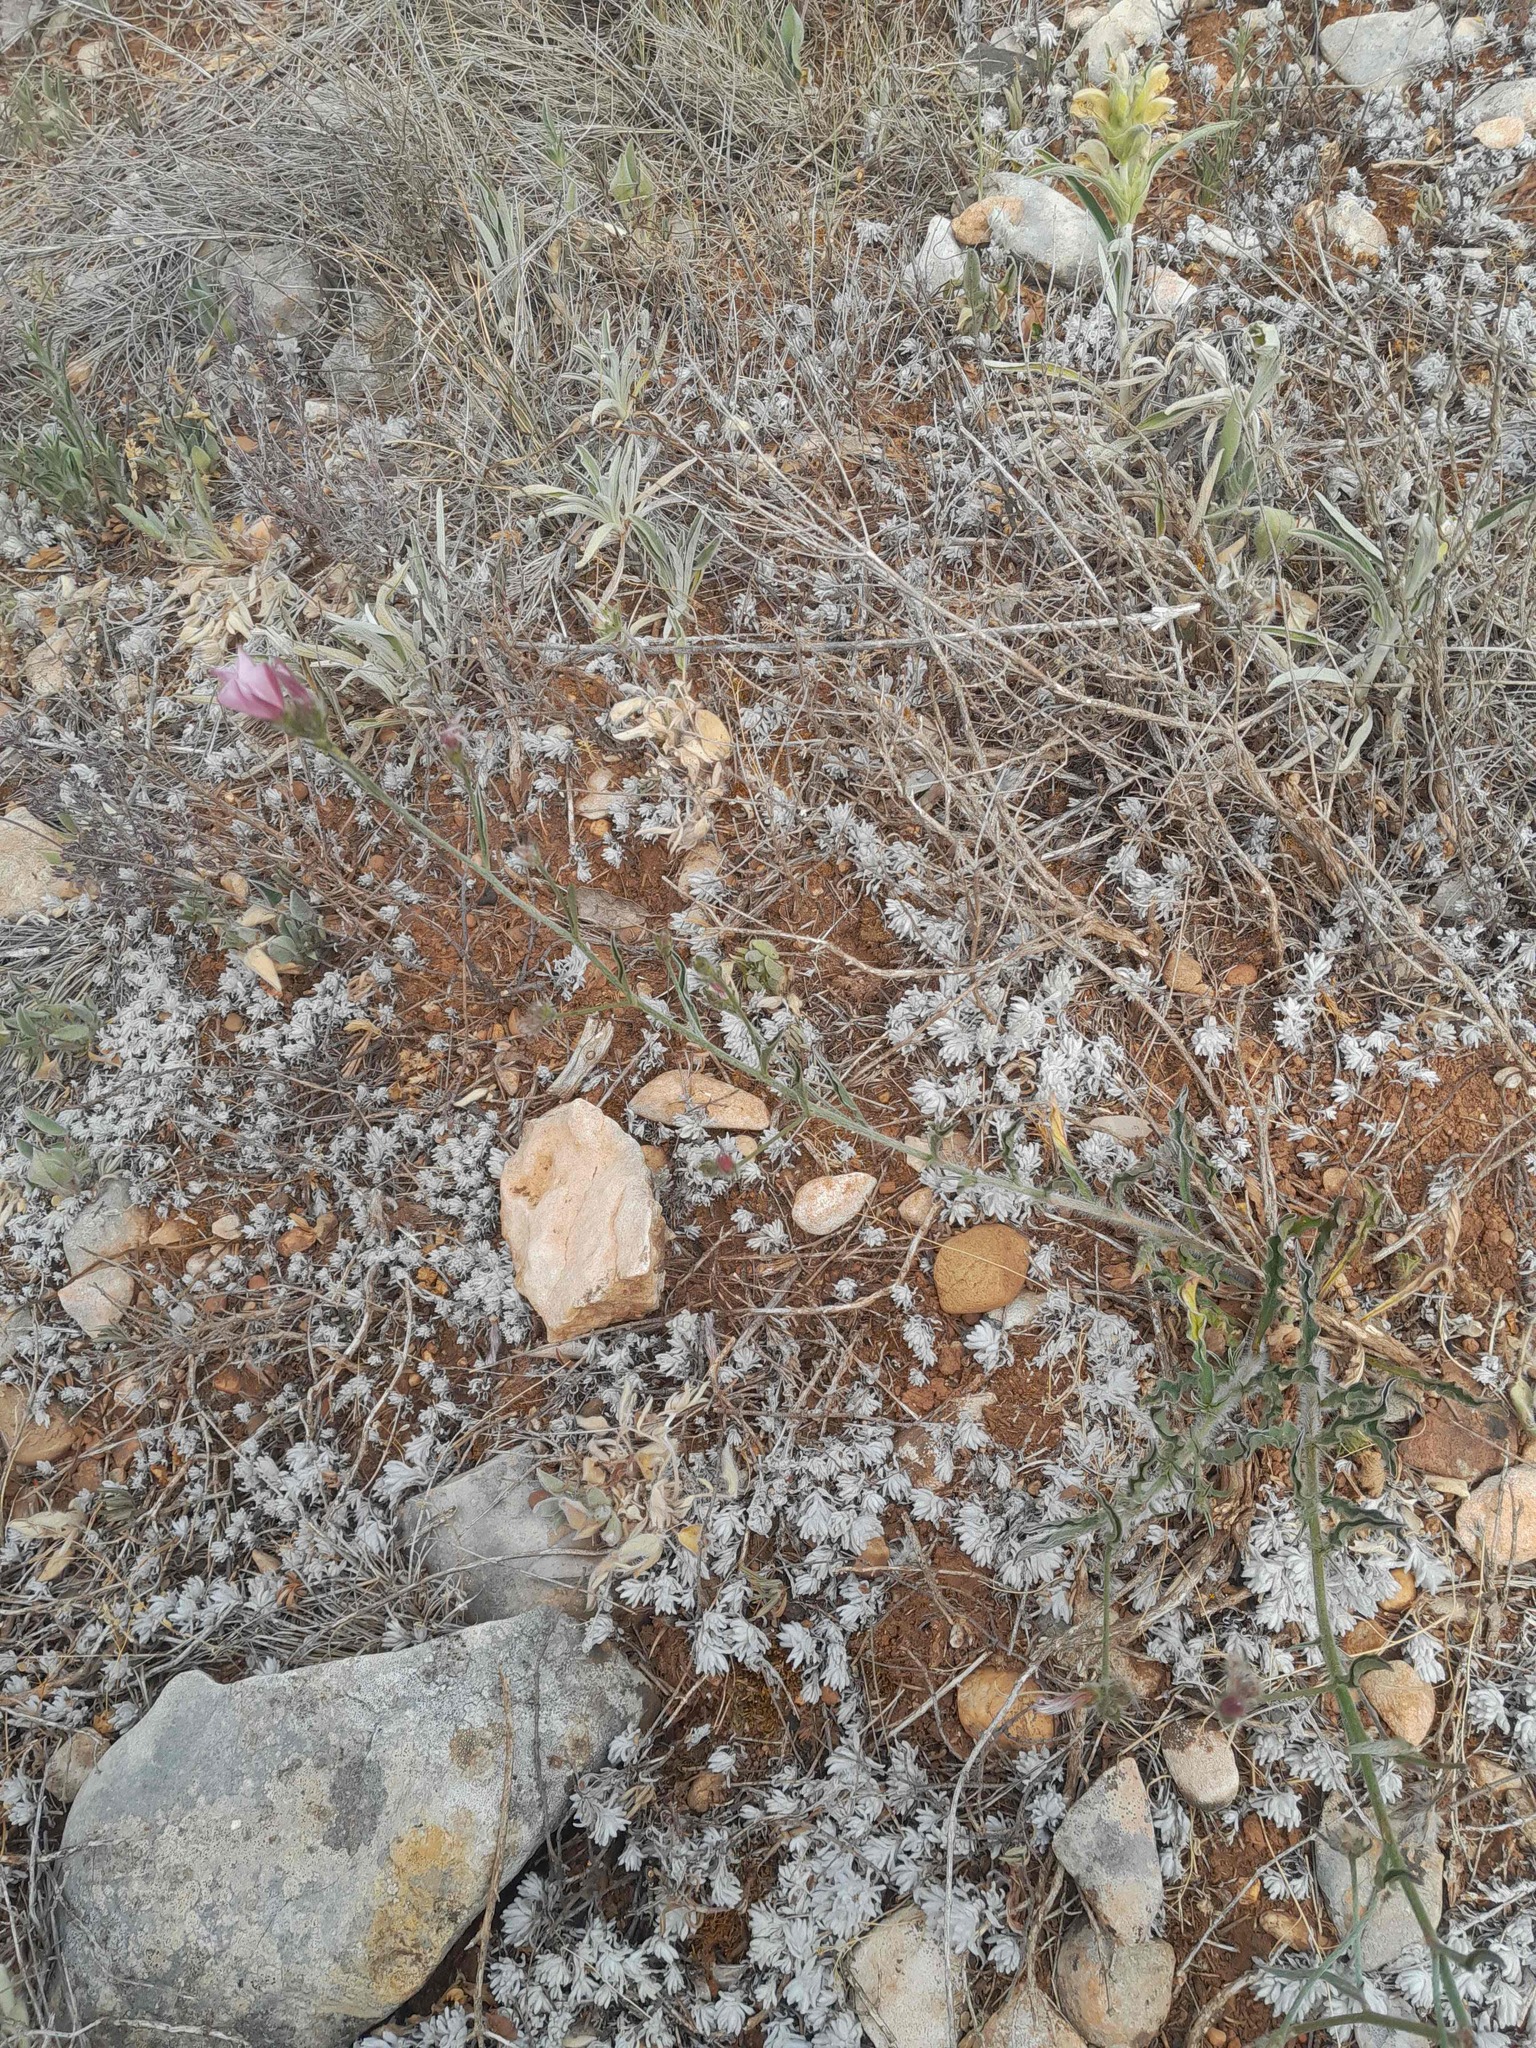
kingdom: Plantae
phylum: Tracheophyta
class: Magnoliopsida
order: Solanales
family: Convolvulaceae
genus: Convolvulus
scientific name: Convolvulus cantabrica
